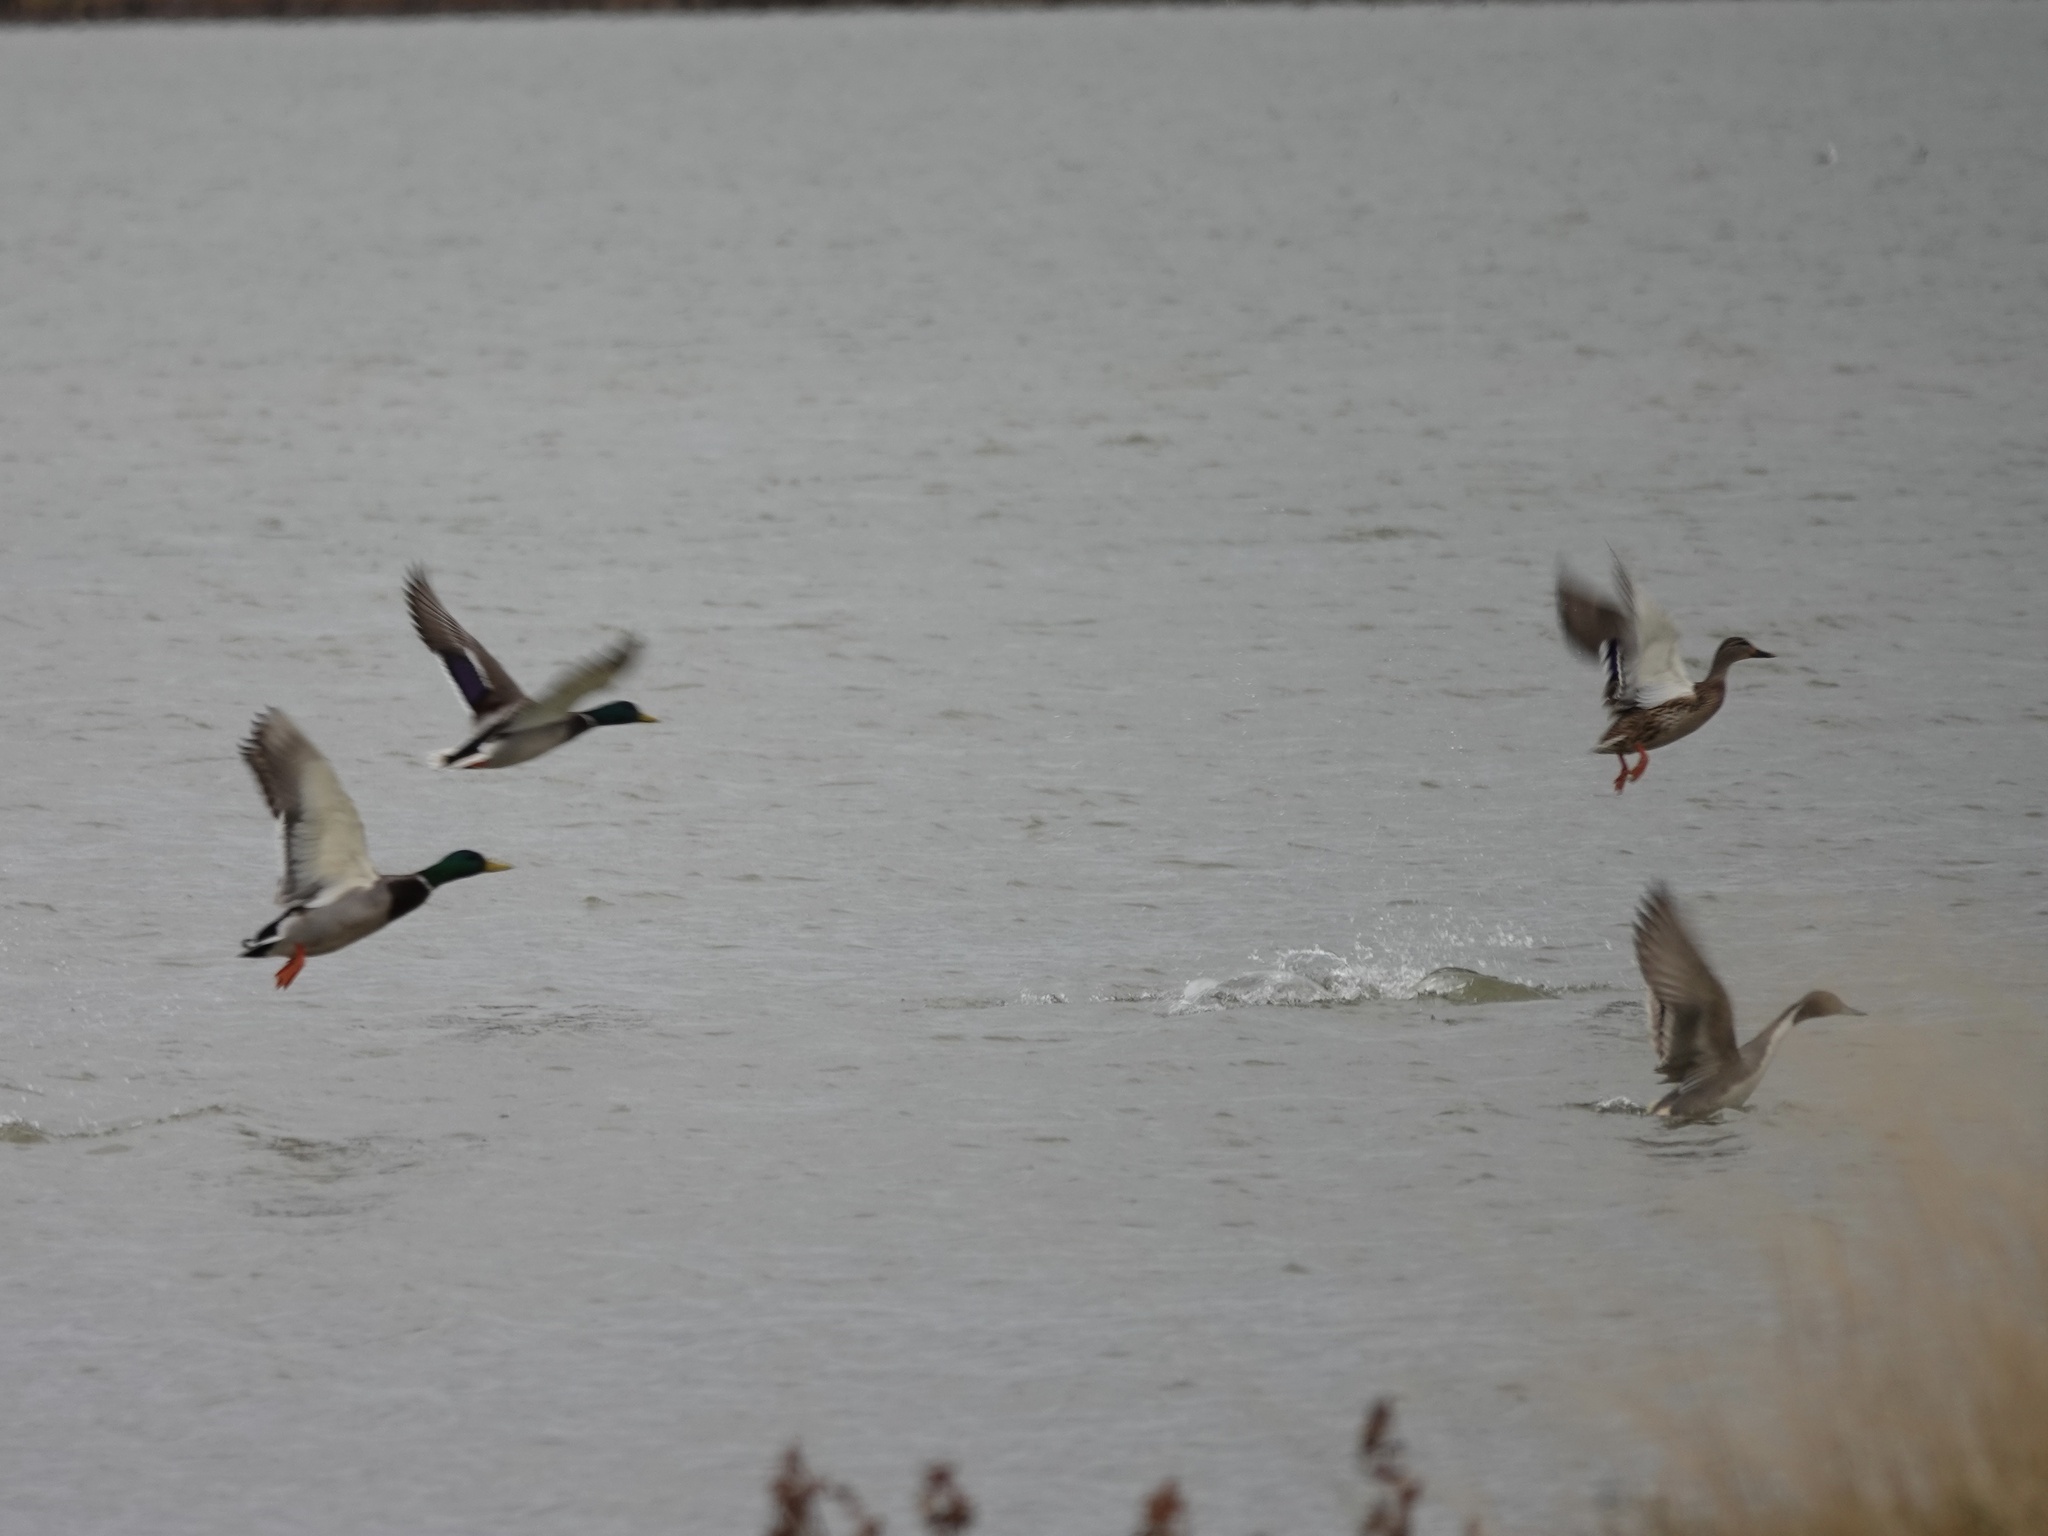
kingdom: Animalia
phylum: Chordata
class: Aves
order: Anseriformes
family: Anatidae
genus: Anas
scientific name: Anas platyrhynchos
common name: Mallard
